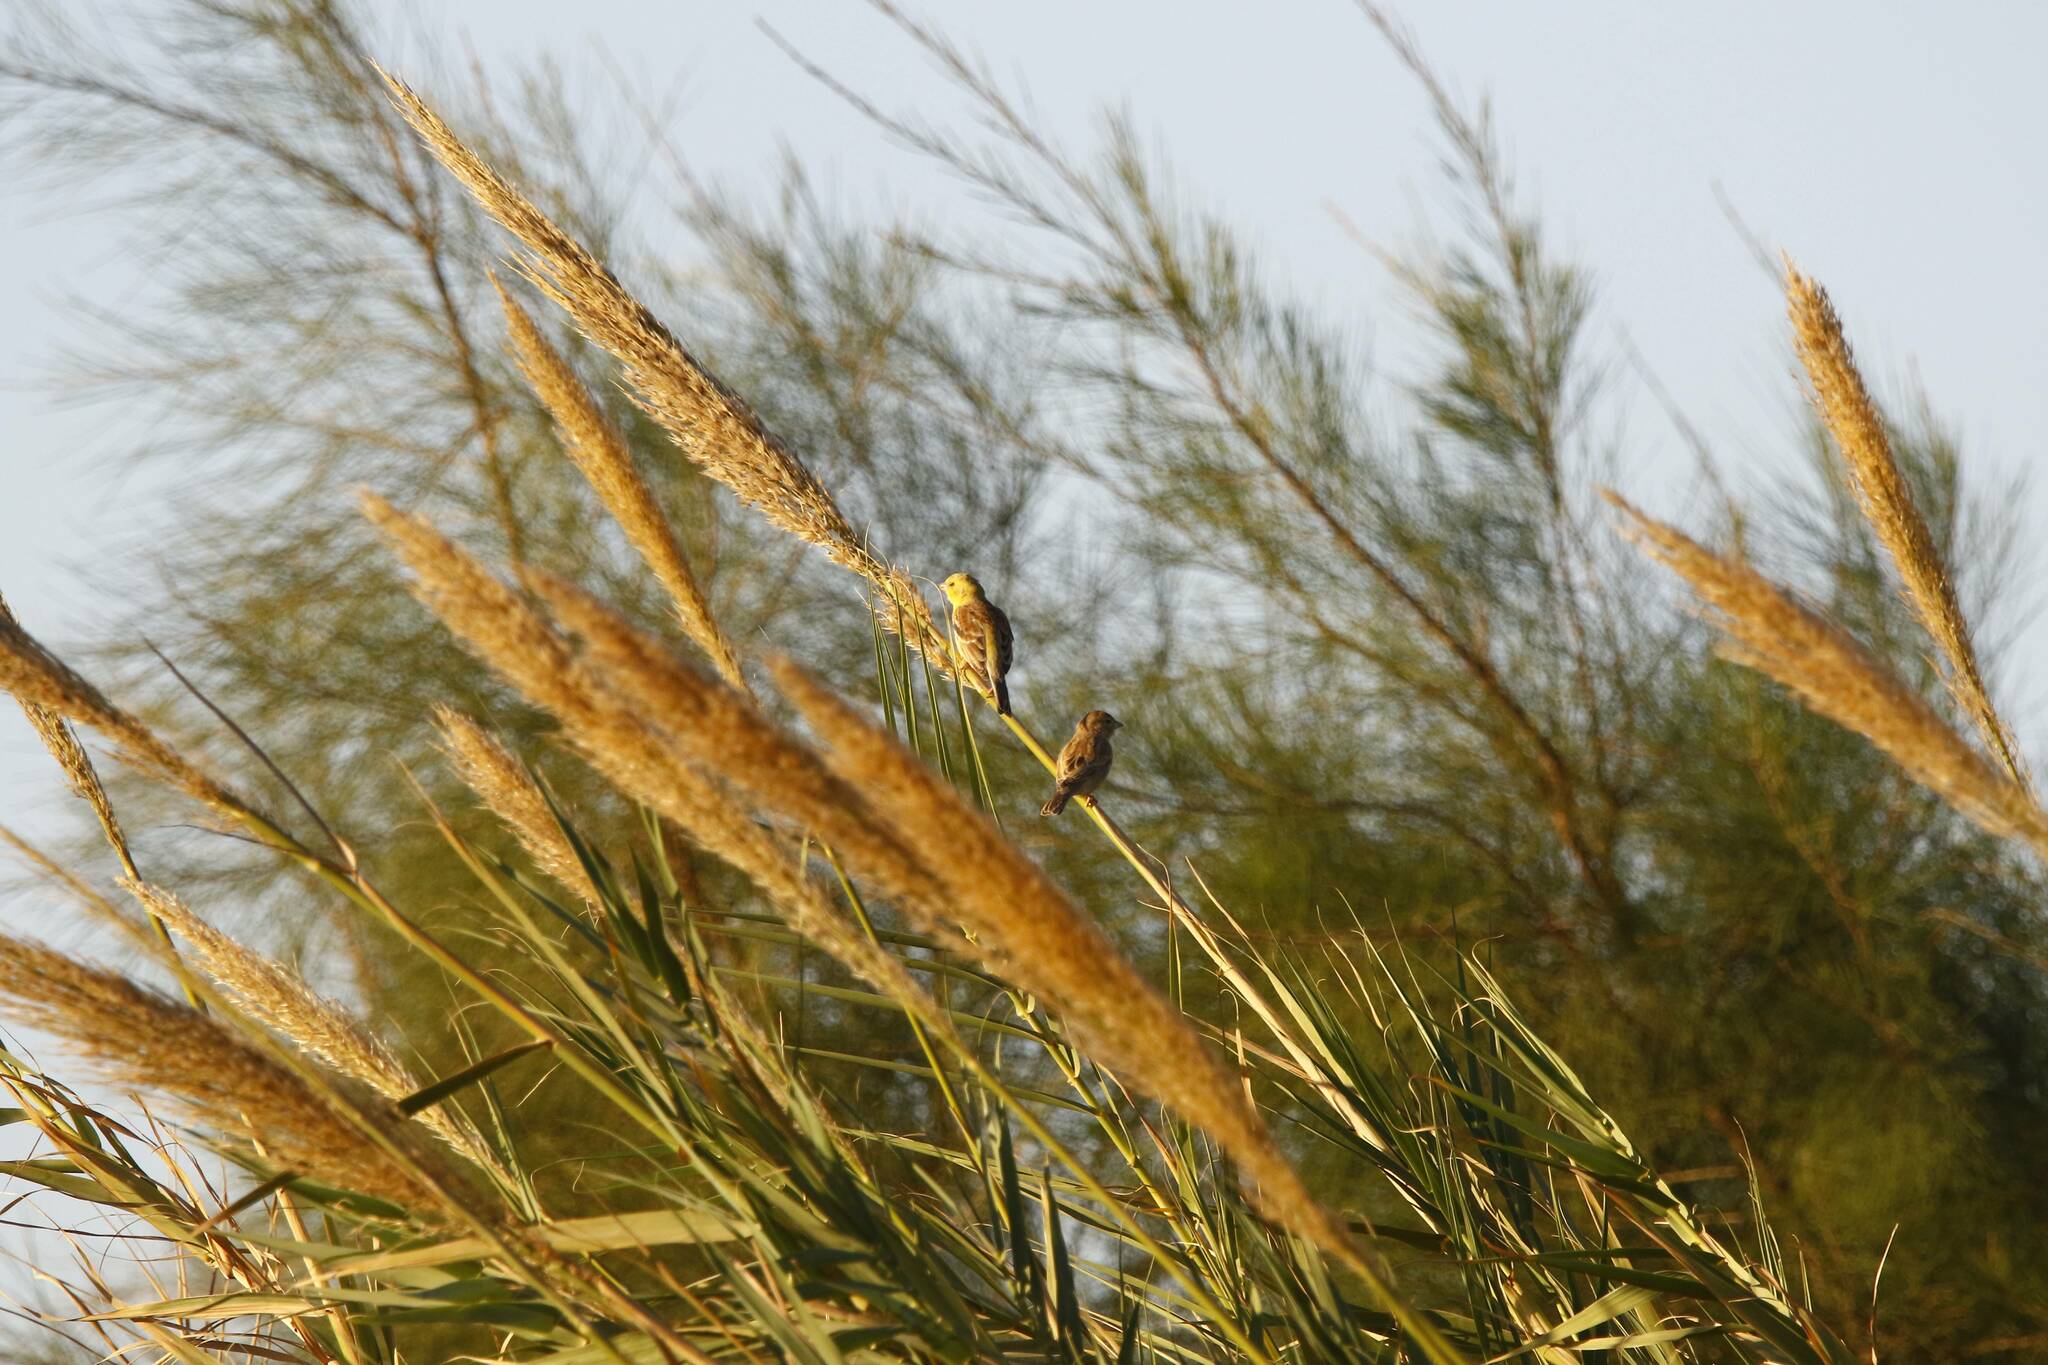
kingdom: Animalia
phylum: Chordata
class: Aves
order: Passeriformes
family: Passeridae
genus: Passer
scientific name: Passer luteus
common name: Sudan golden sparrow
